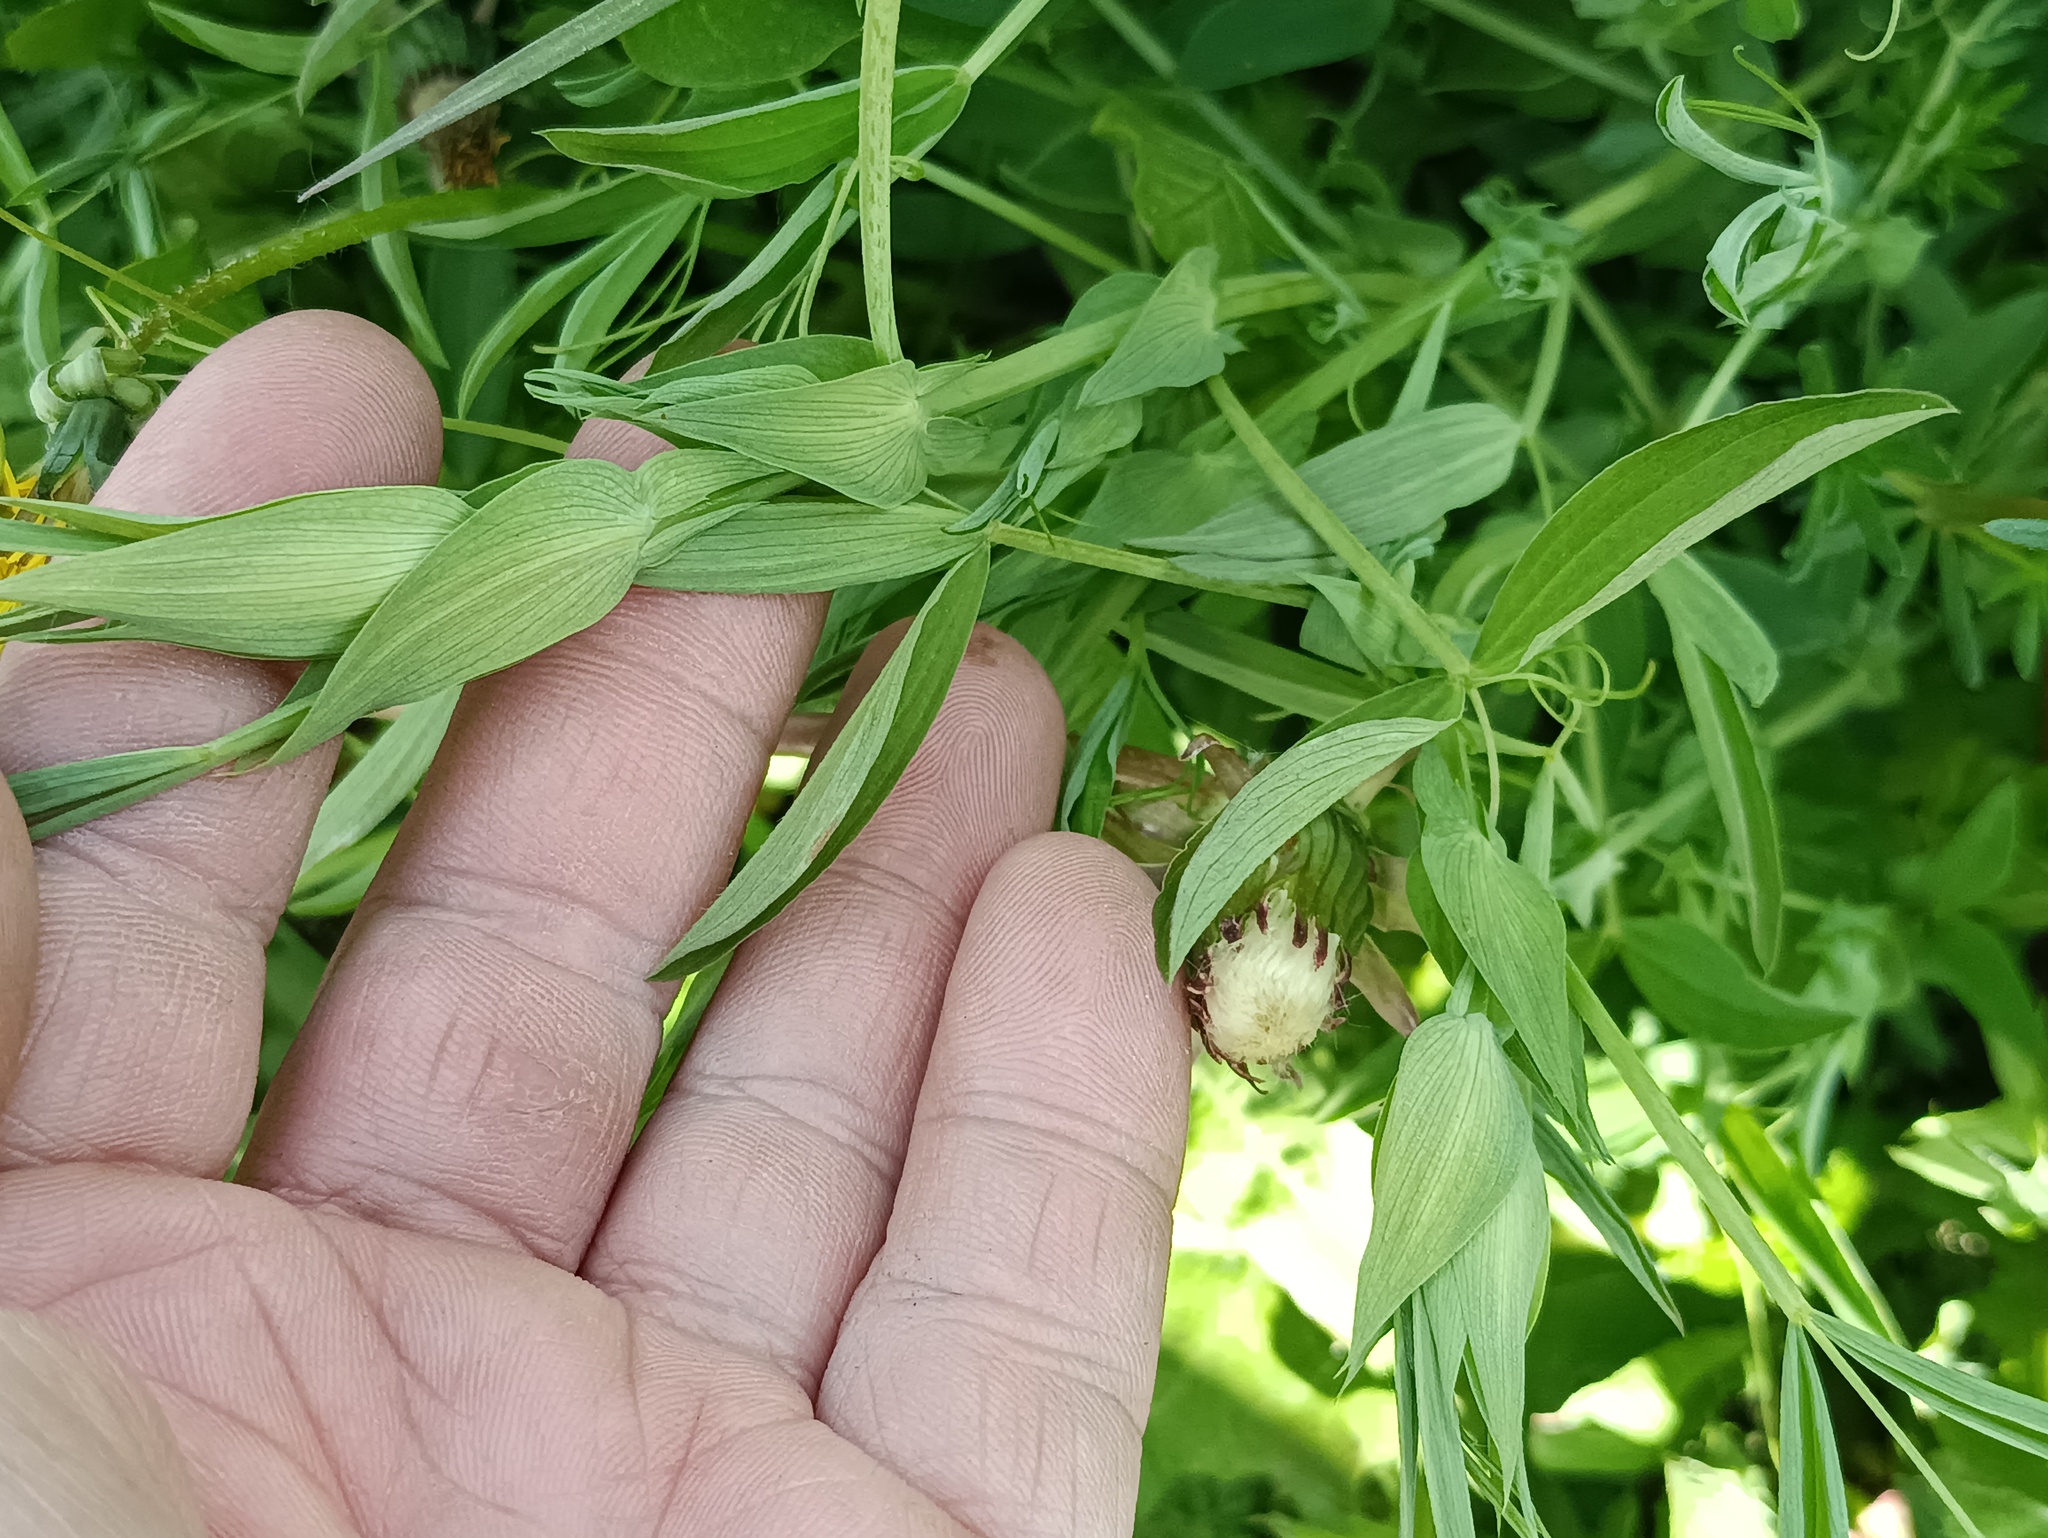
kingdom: Plantae
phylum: Tracheophyta
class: Magnoliopsida
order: Fabales
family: Fabaceae
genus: Lathyrus
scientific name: Lathyrus pratensis
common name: Meadow vetchling
